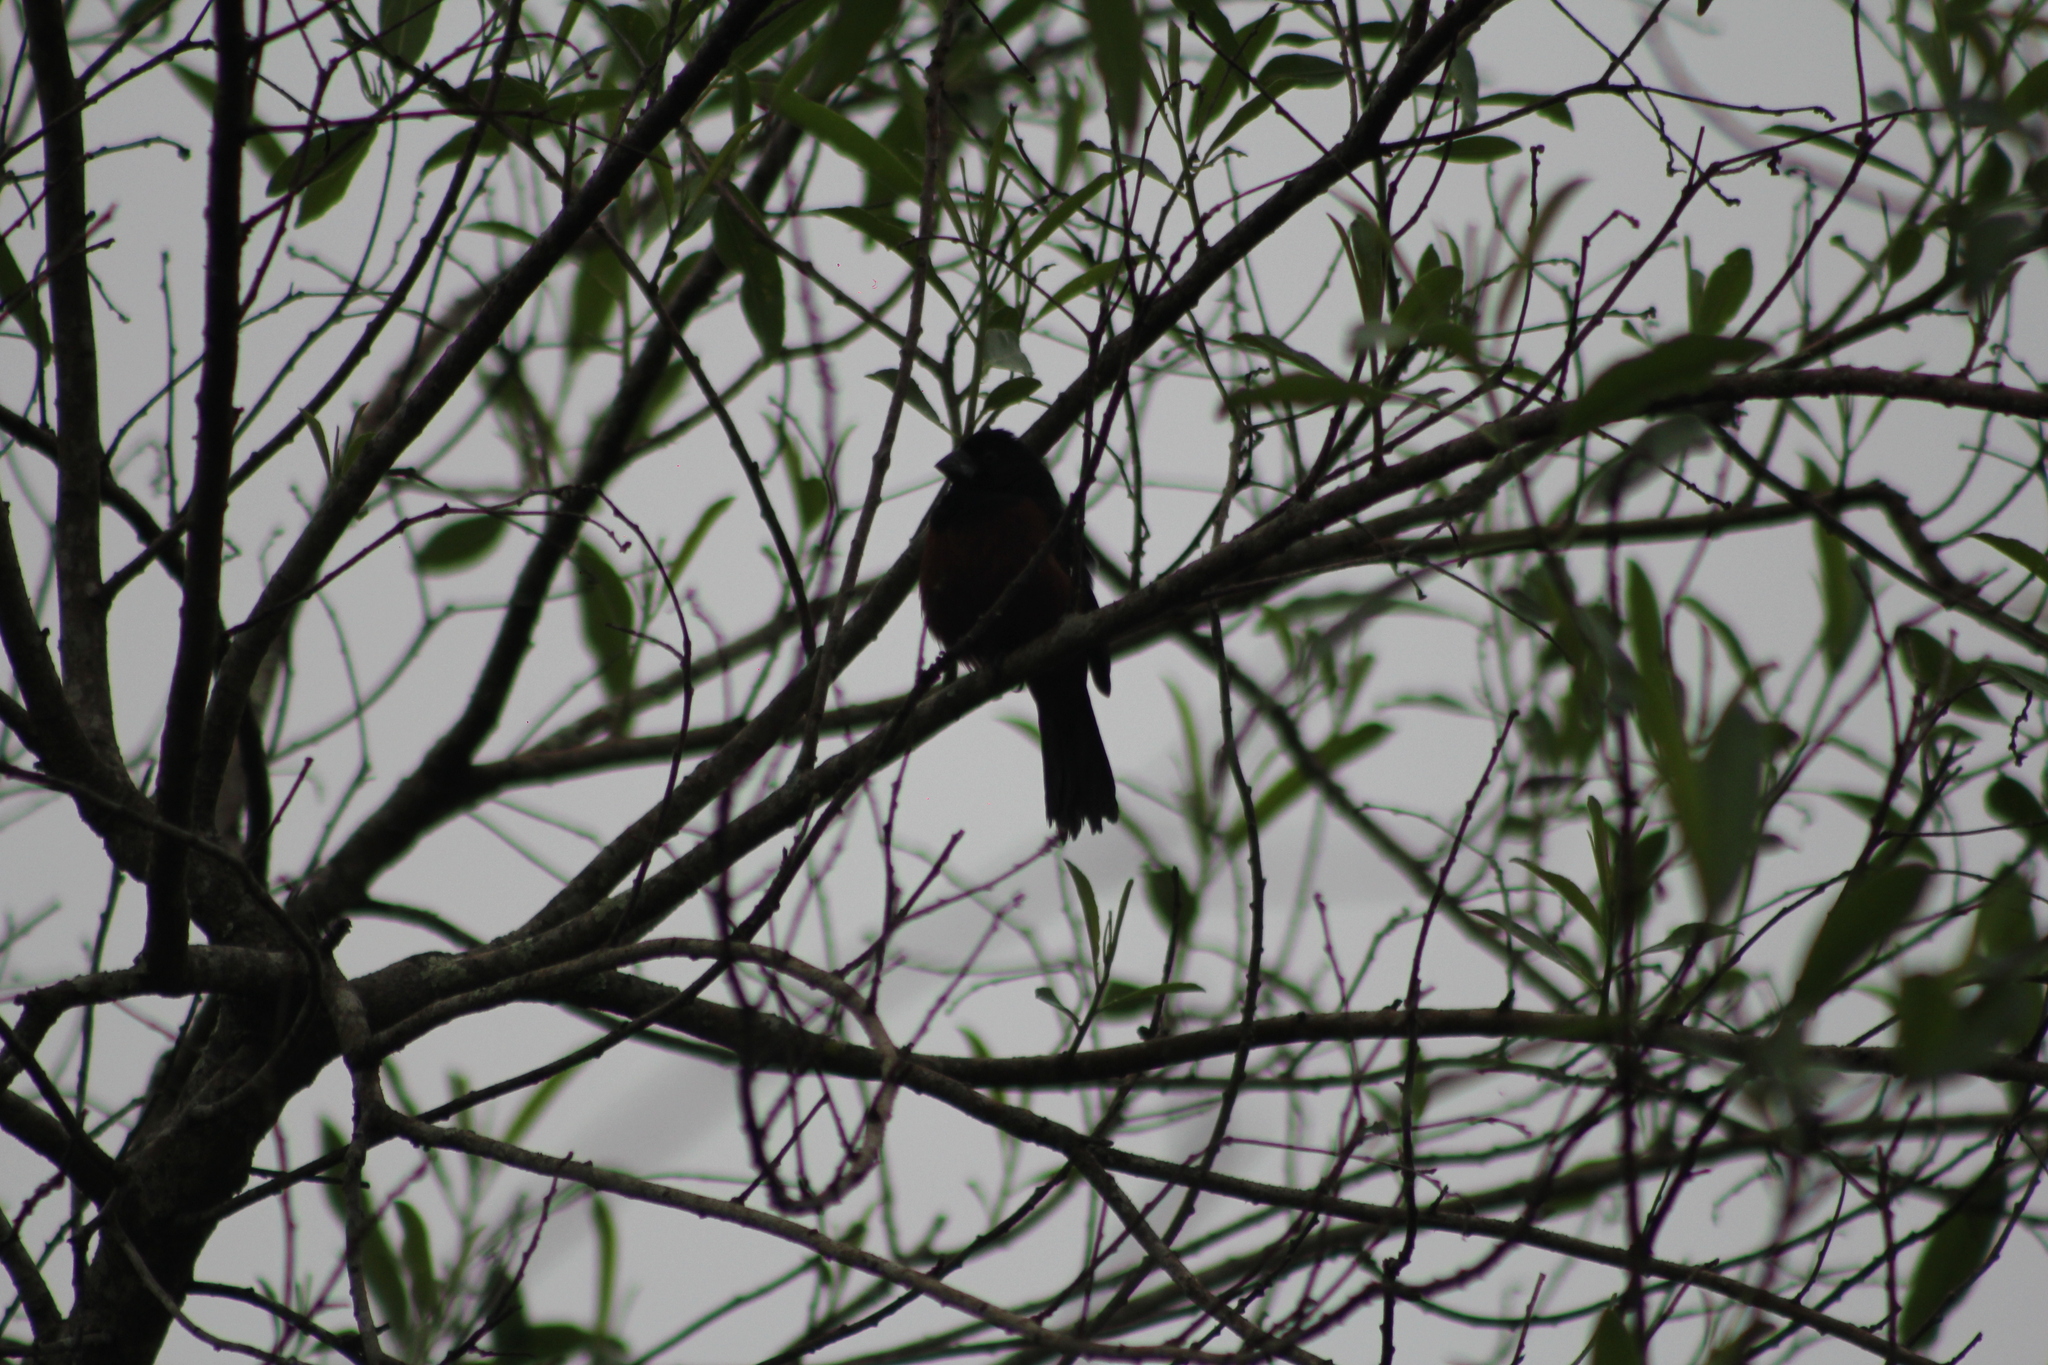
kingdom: Animalia
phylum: Chordata
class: Aves
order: Passeriformes
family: Thraupidae
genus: Sporophila
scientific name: Sporophila angolensis
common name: Chestnut-bellied seed-finch
